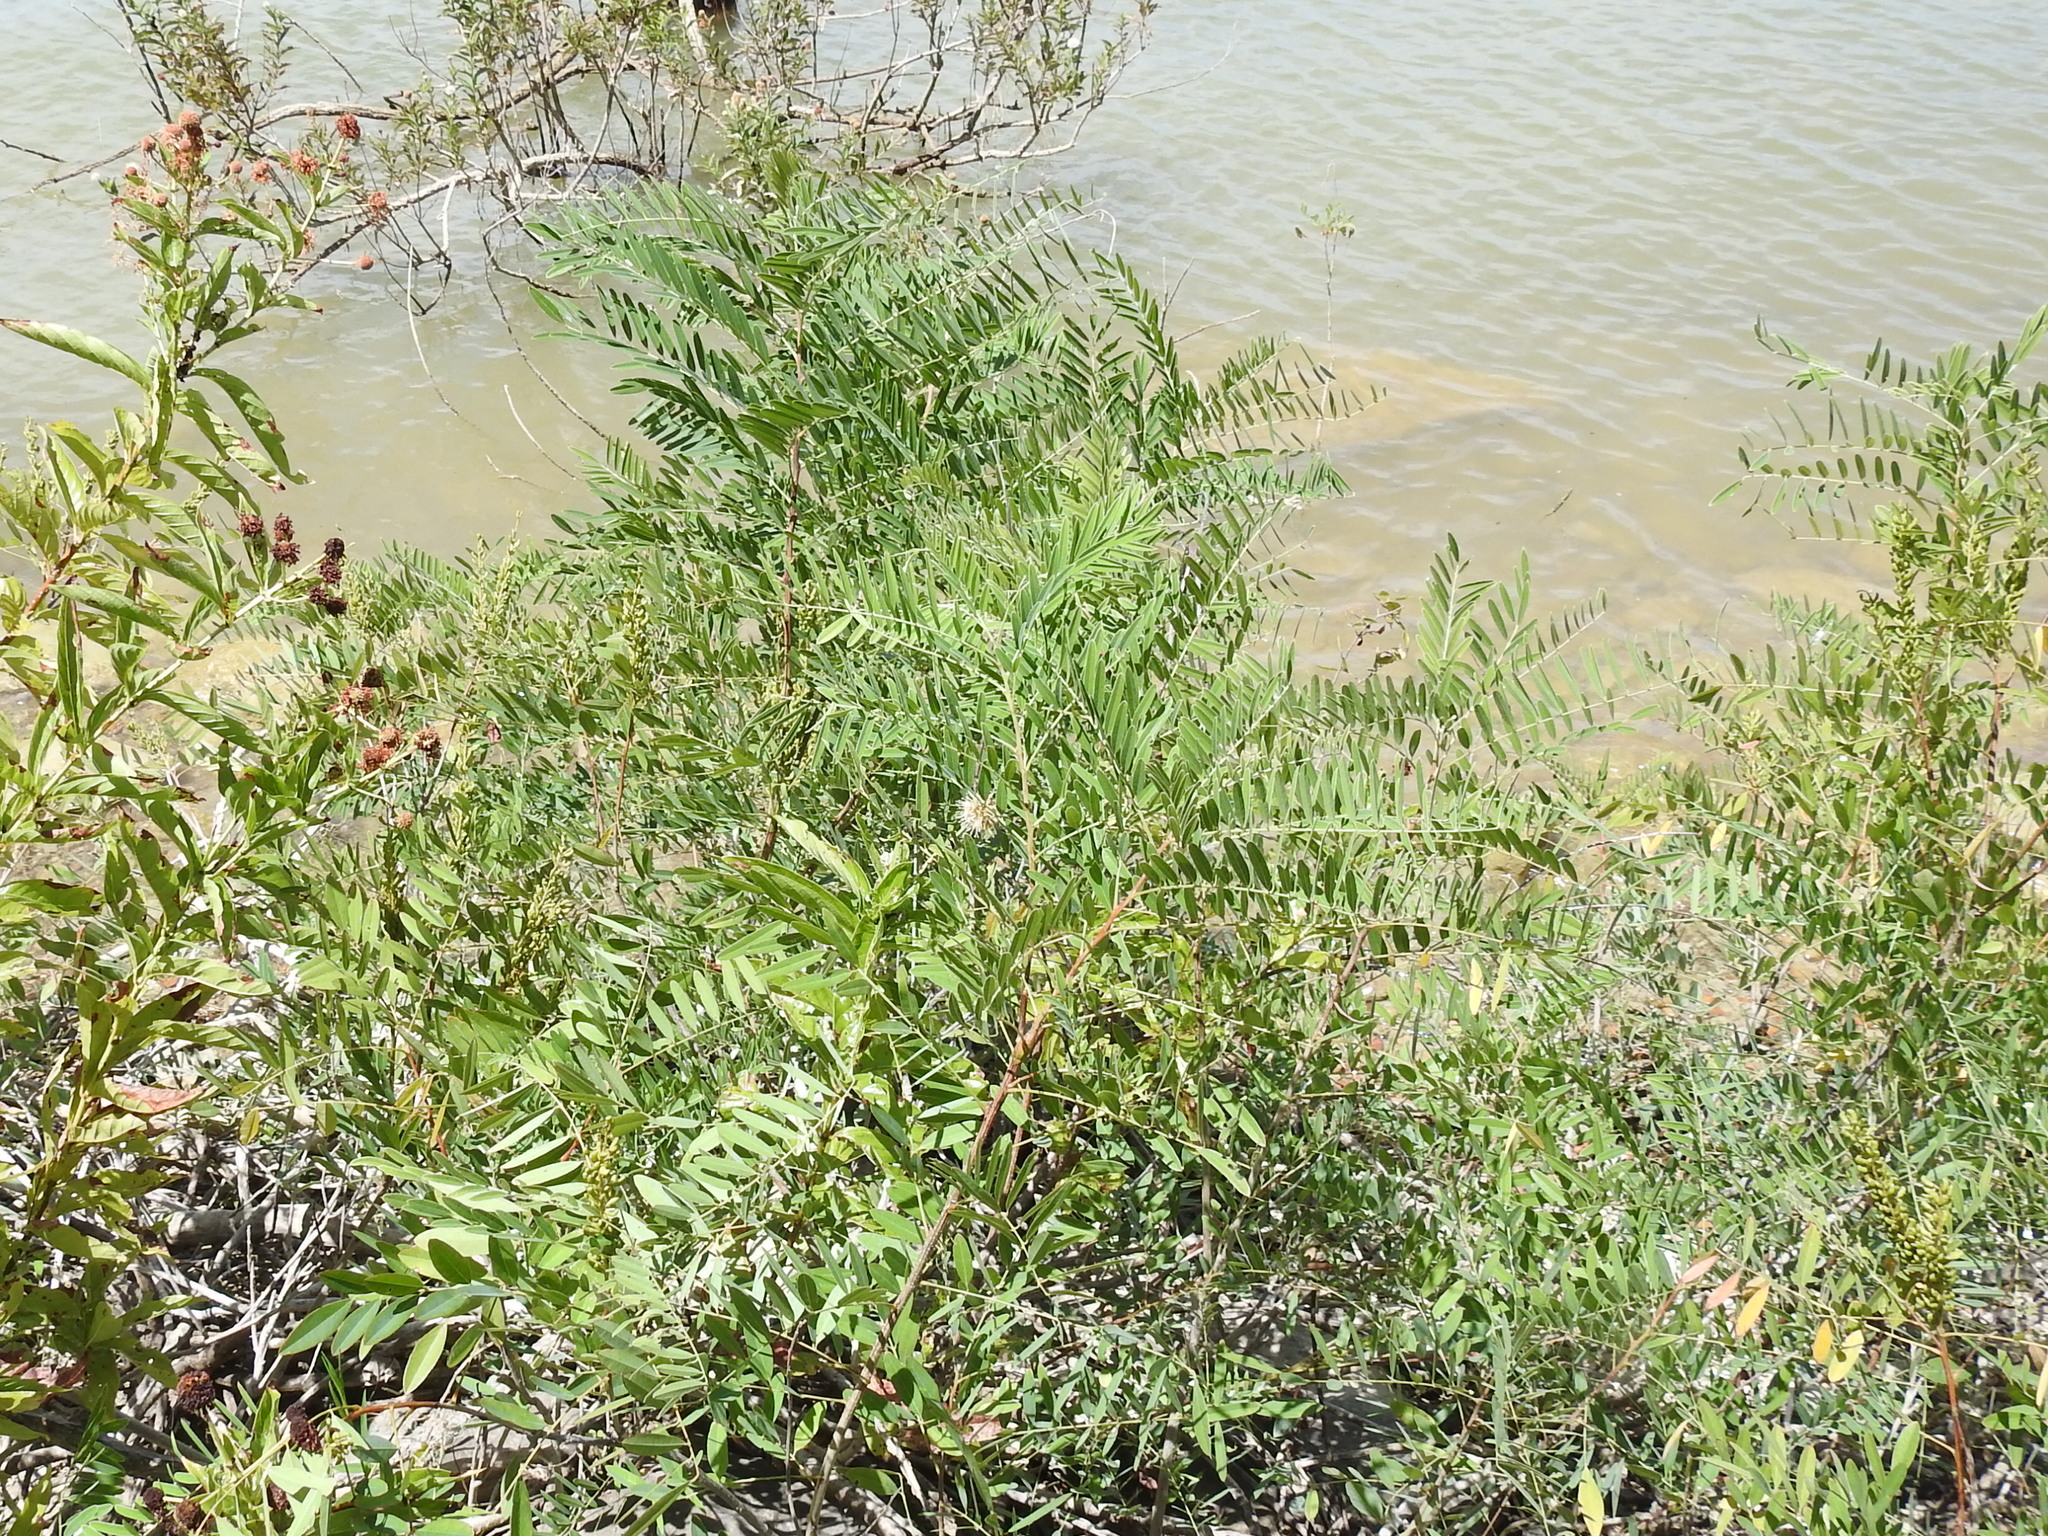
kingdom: Plantae
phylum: Tracheophyta
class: Magnoliopsida
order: Fabales
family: Fabaceae
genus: Amorpha
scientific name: Amorpha fruticosa
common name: False indigo
